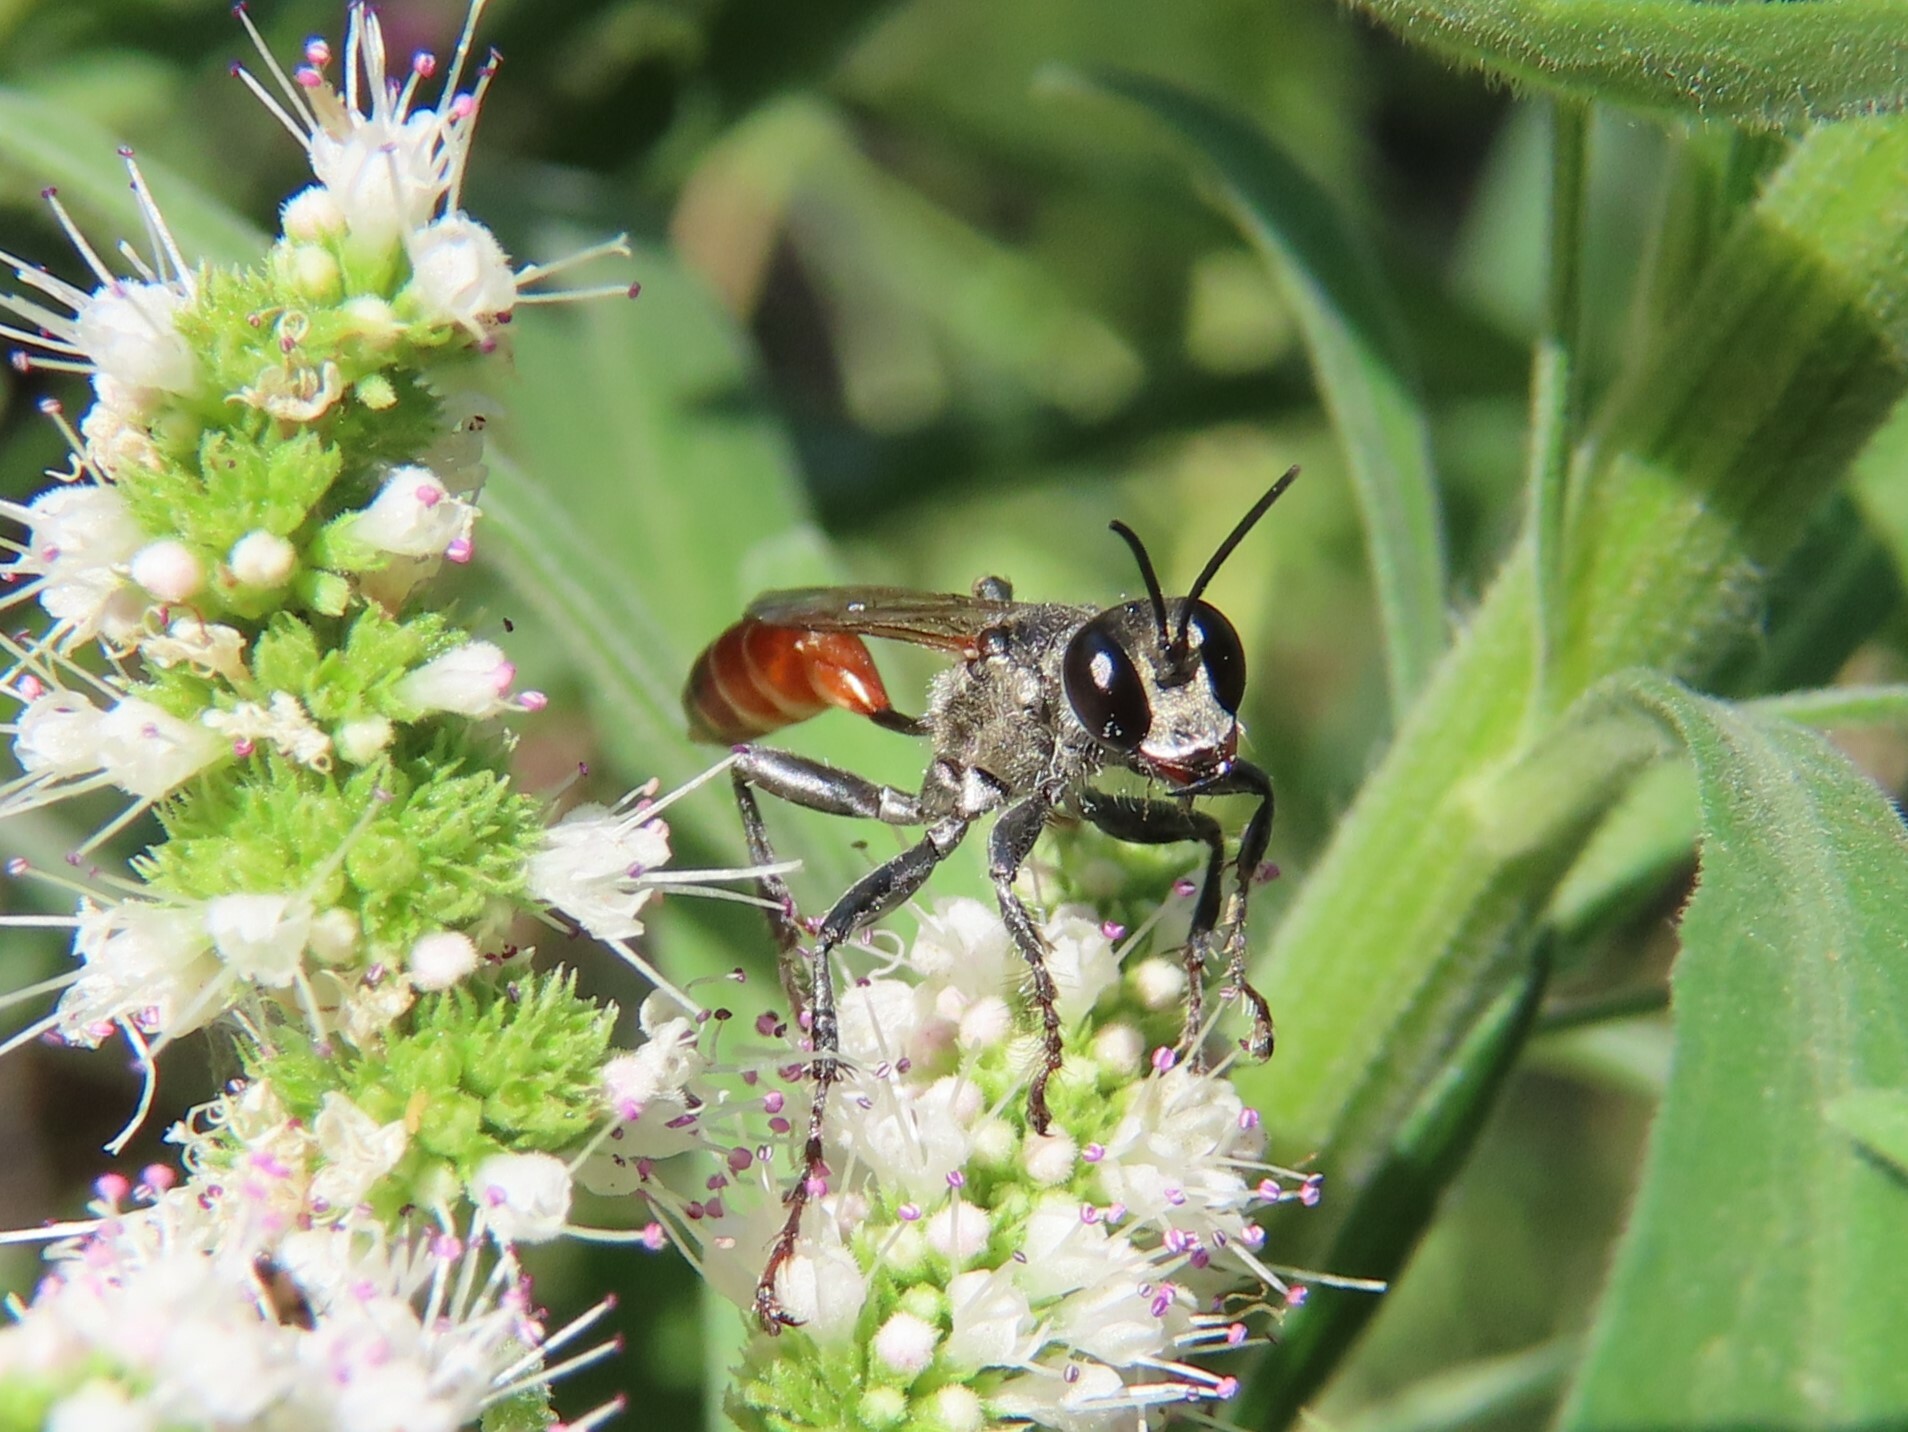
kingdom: Animalia
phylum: Arthropoda
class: Insecta
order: Hymenoptera
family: Sphecidae
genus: Prionyx
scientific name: Prionyx kirbii
